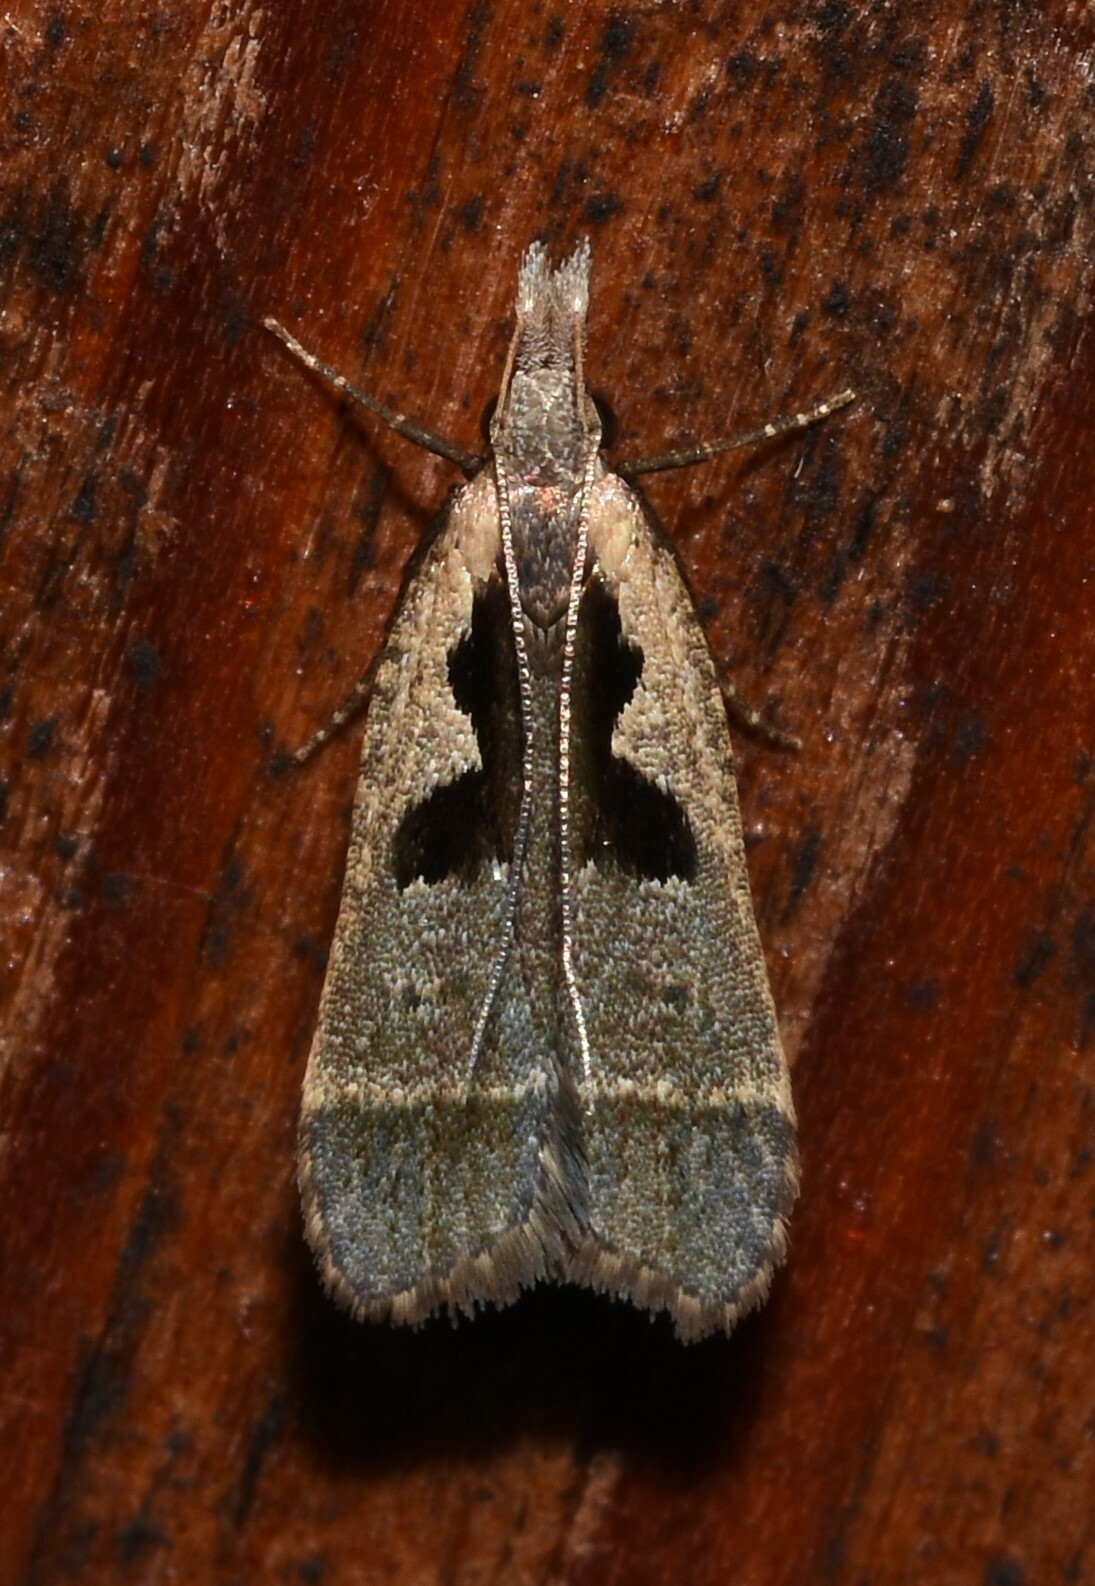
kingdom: Animalia
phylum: Arthropoda
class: Insecta
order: Lepidoptera
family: Gelechiidae
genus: Dichomeris
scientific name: Dichomeris setosella
